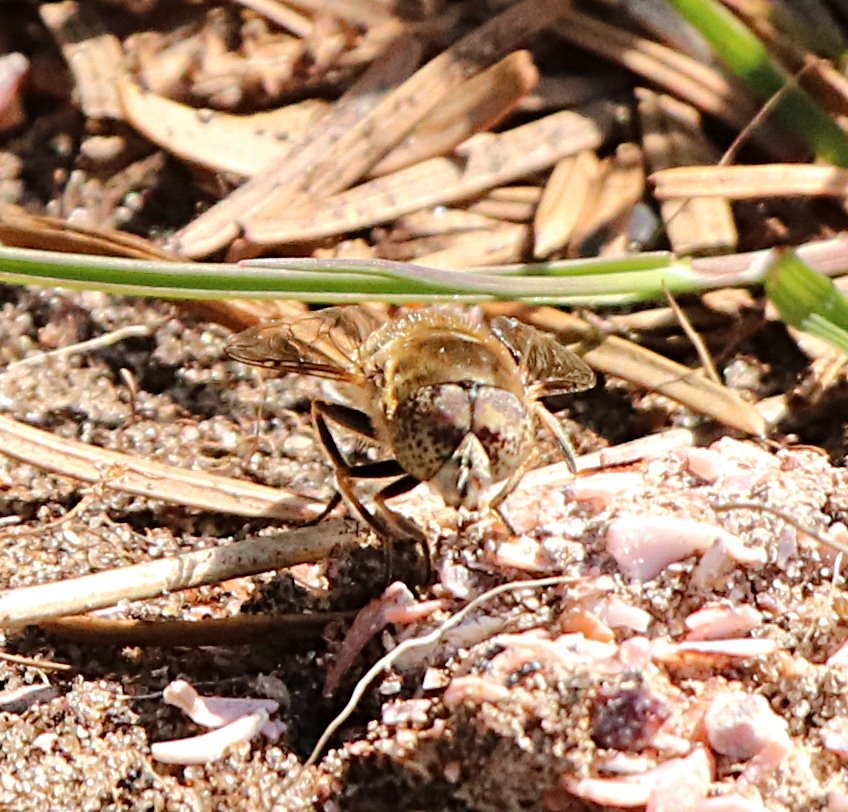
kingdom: Animalia
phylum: Arthropoda
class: Insecta
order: Diptera
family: Syrphidae
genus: Eristalinus
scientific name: Eristalinus aeneus
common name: Syrphid fly
